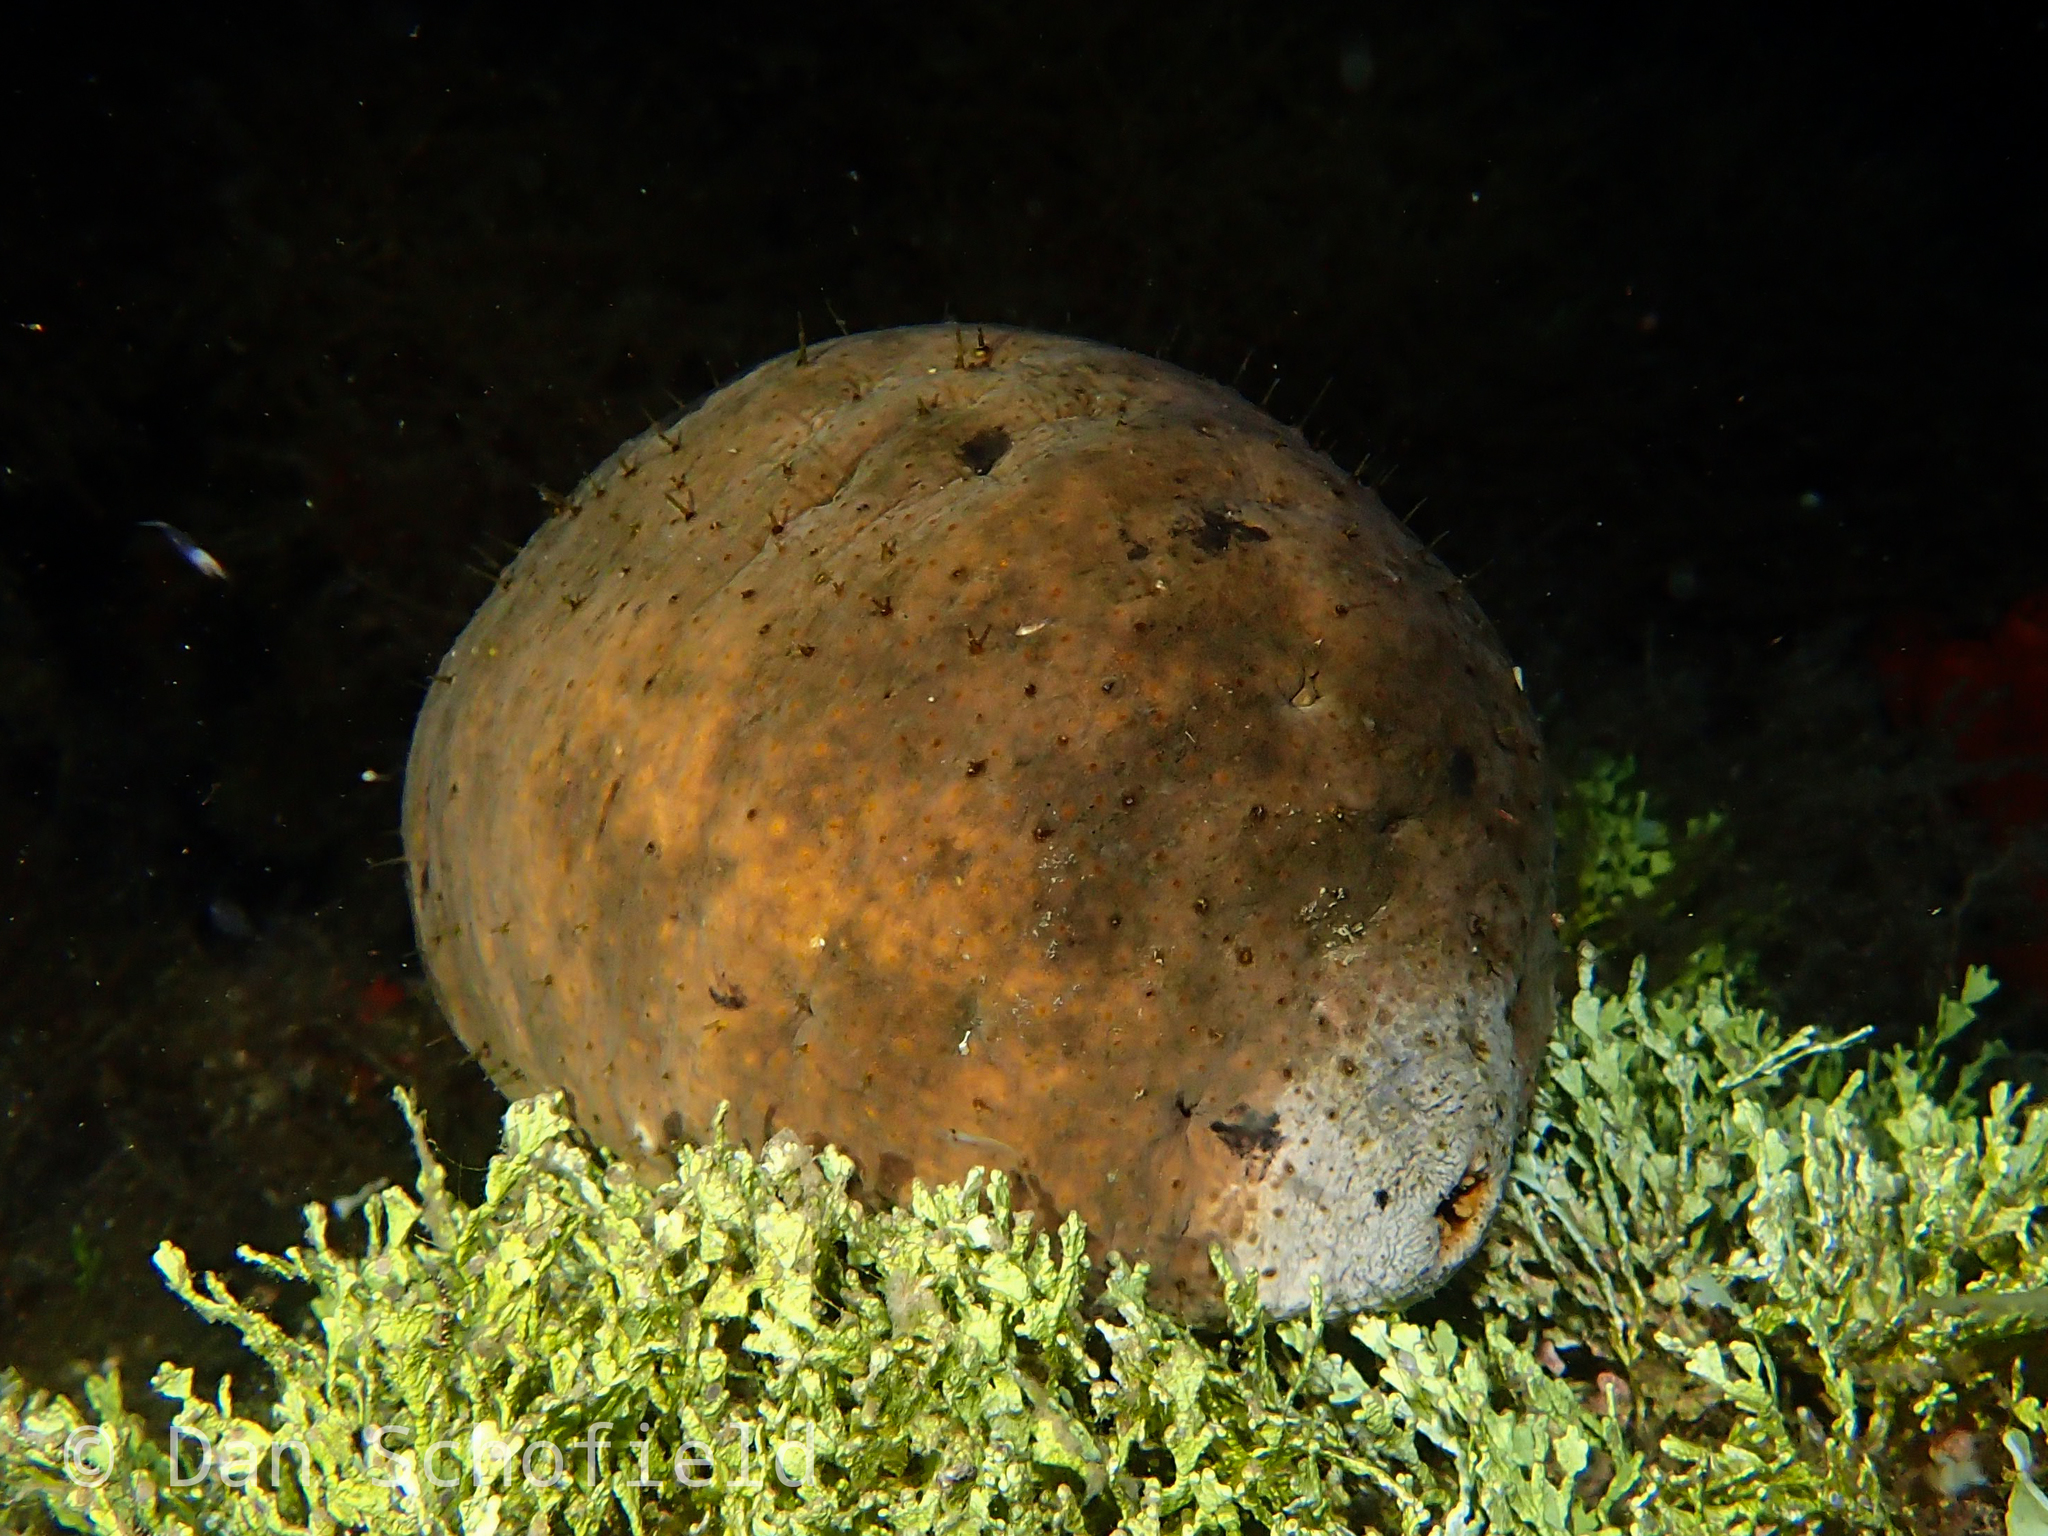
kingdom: Animalia
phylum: Echinodermata
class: Holothuroidea
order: Holothuriida
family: Holothuriidae
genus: Actinopyga
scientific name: Actinopyga lecanora
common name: Stonefish
